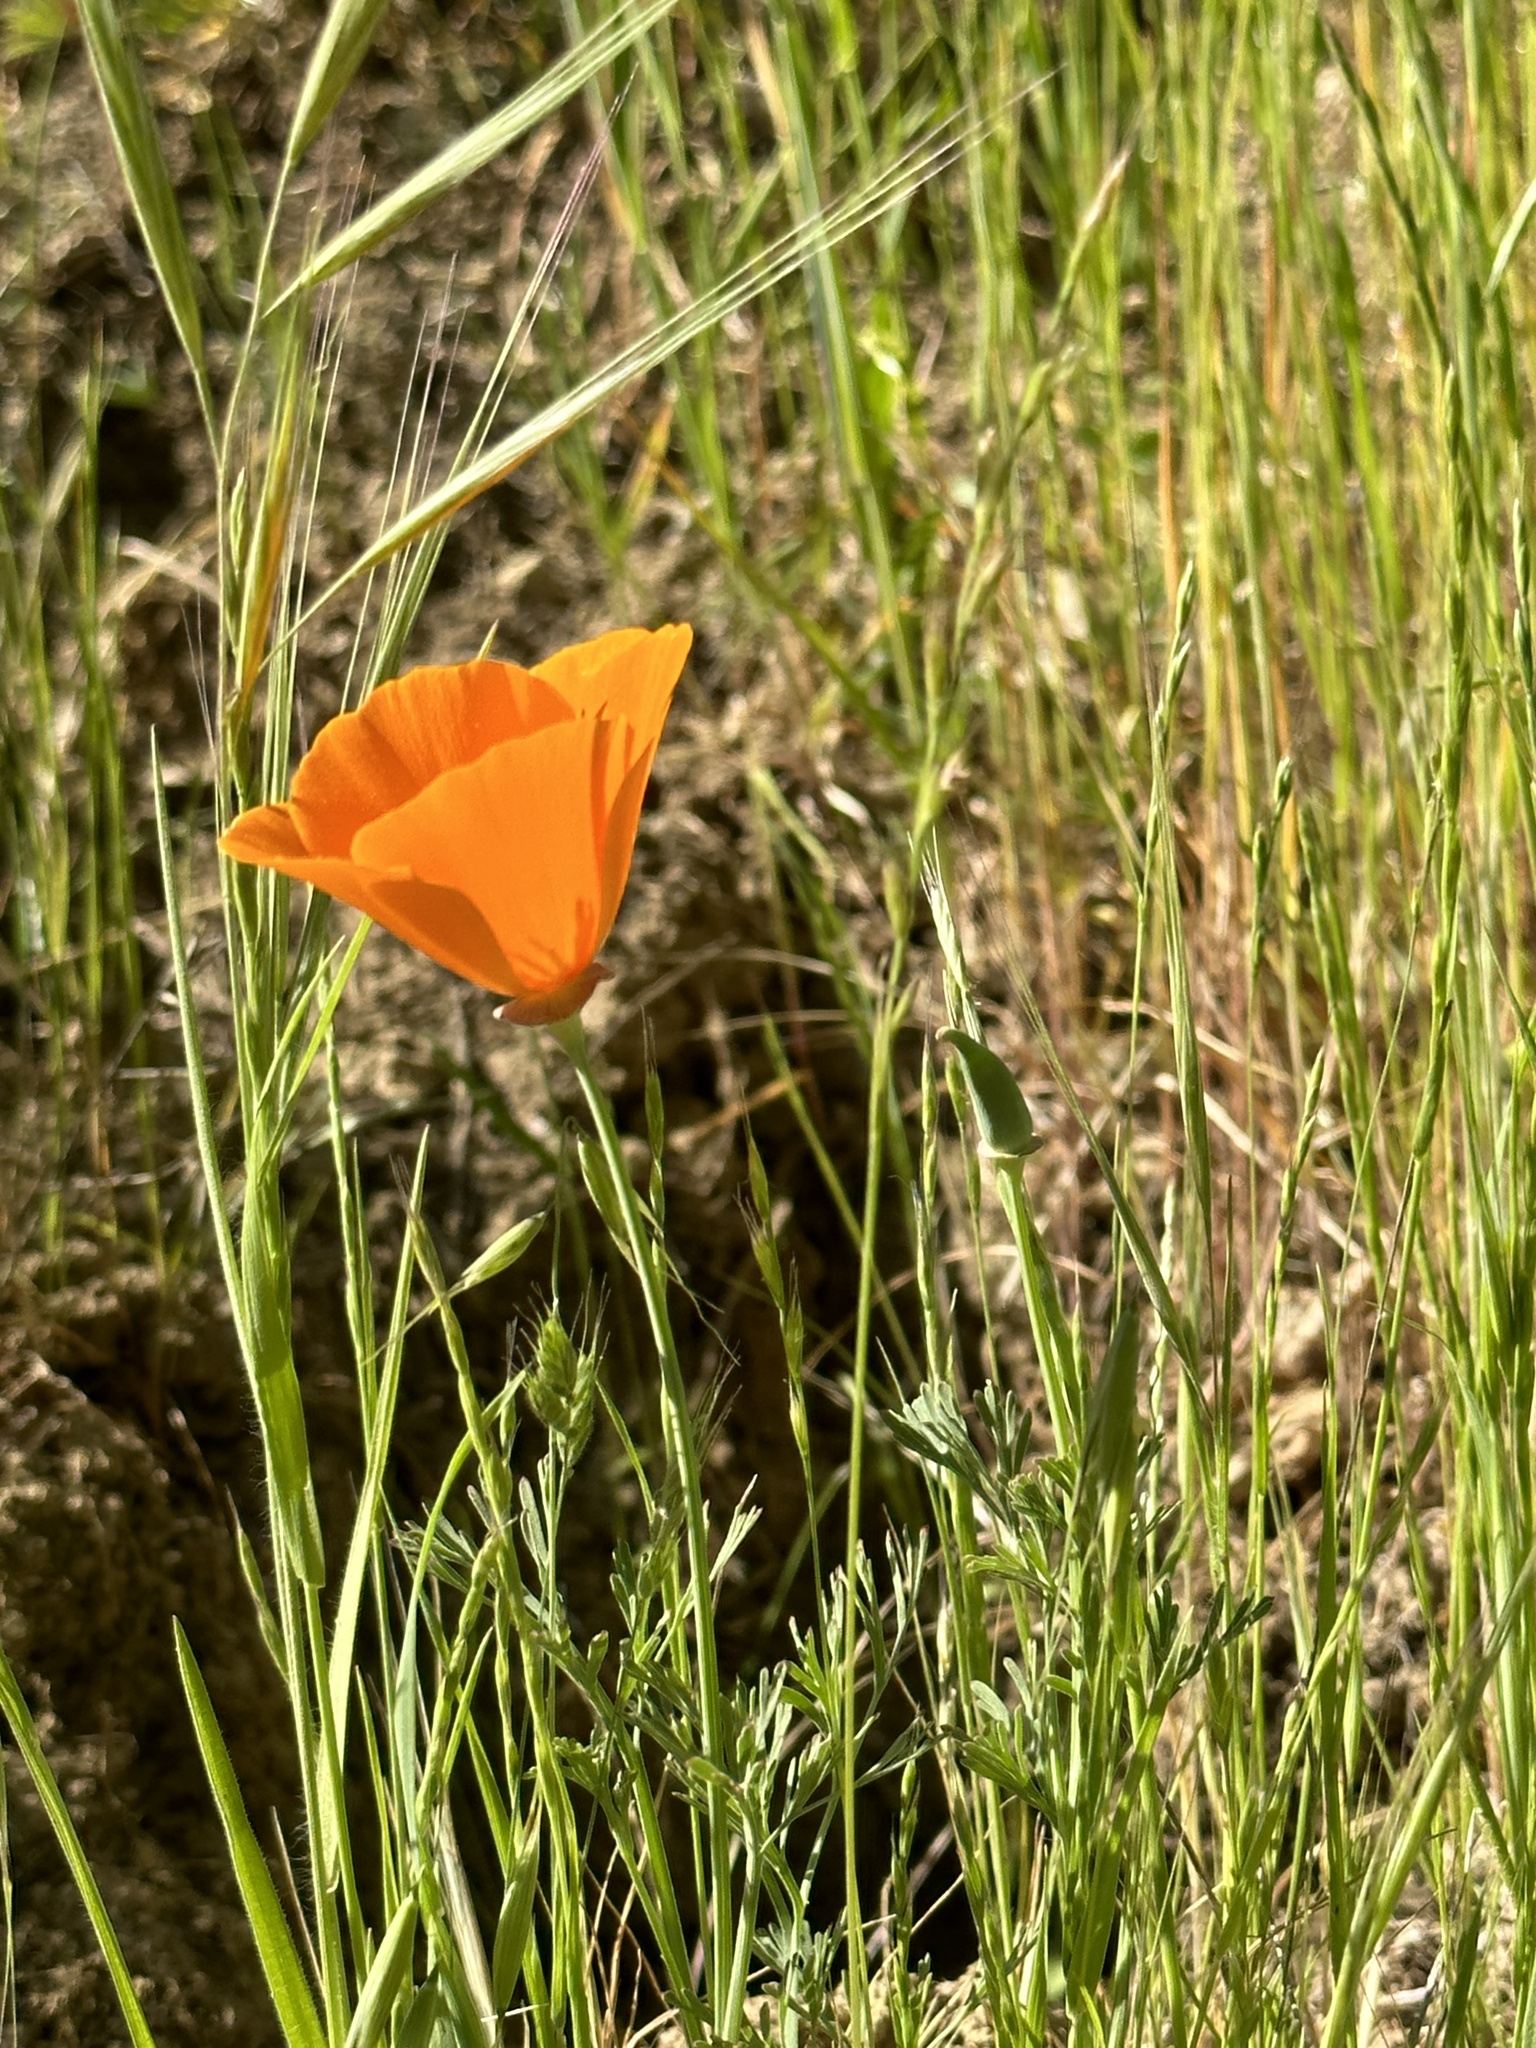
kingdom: Plantae
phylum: Tracheophyta
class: Magnoliopsida
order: Ranunculales
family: Papaveraceae
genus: Eschscholzia
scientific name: Eschscholzia californica
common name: California poppy
